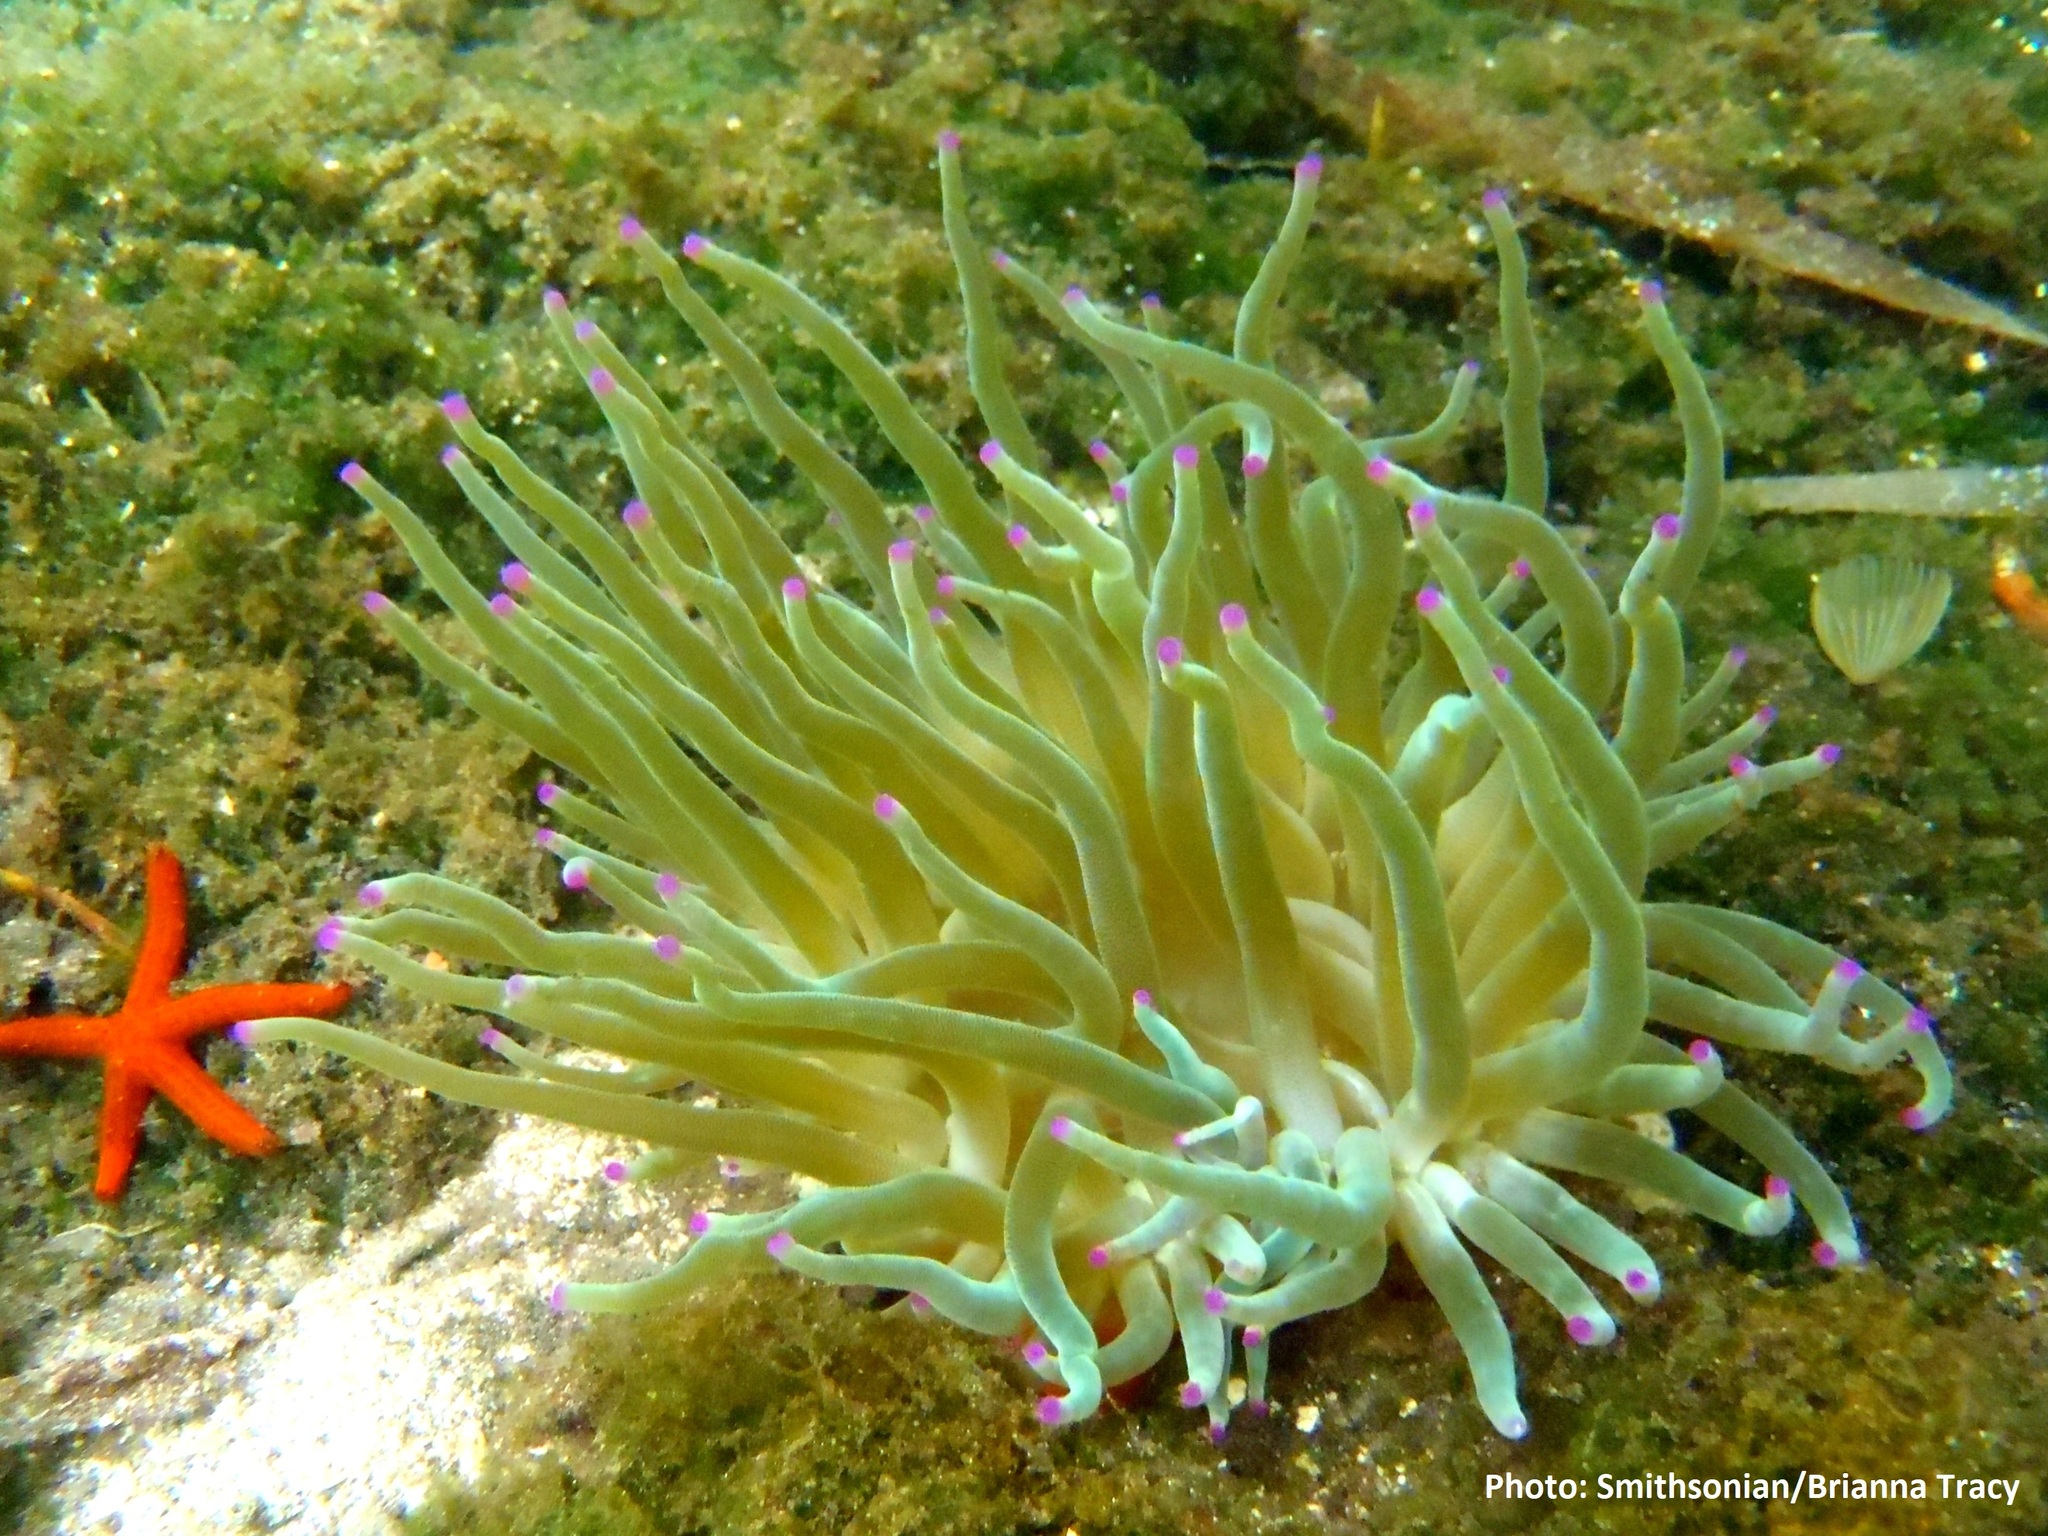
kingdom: Animalia
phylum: Cnidaria
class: Anthozoa
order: Actiniaria
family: Actiniidae
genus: Condylactis
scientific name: Condylactis gigantea
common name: Giant caribbean anemone
